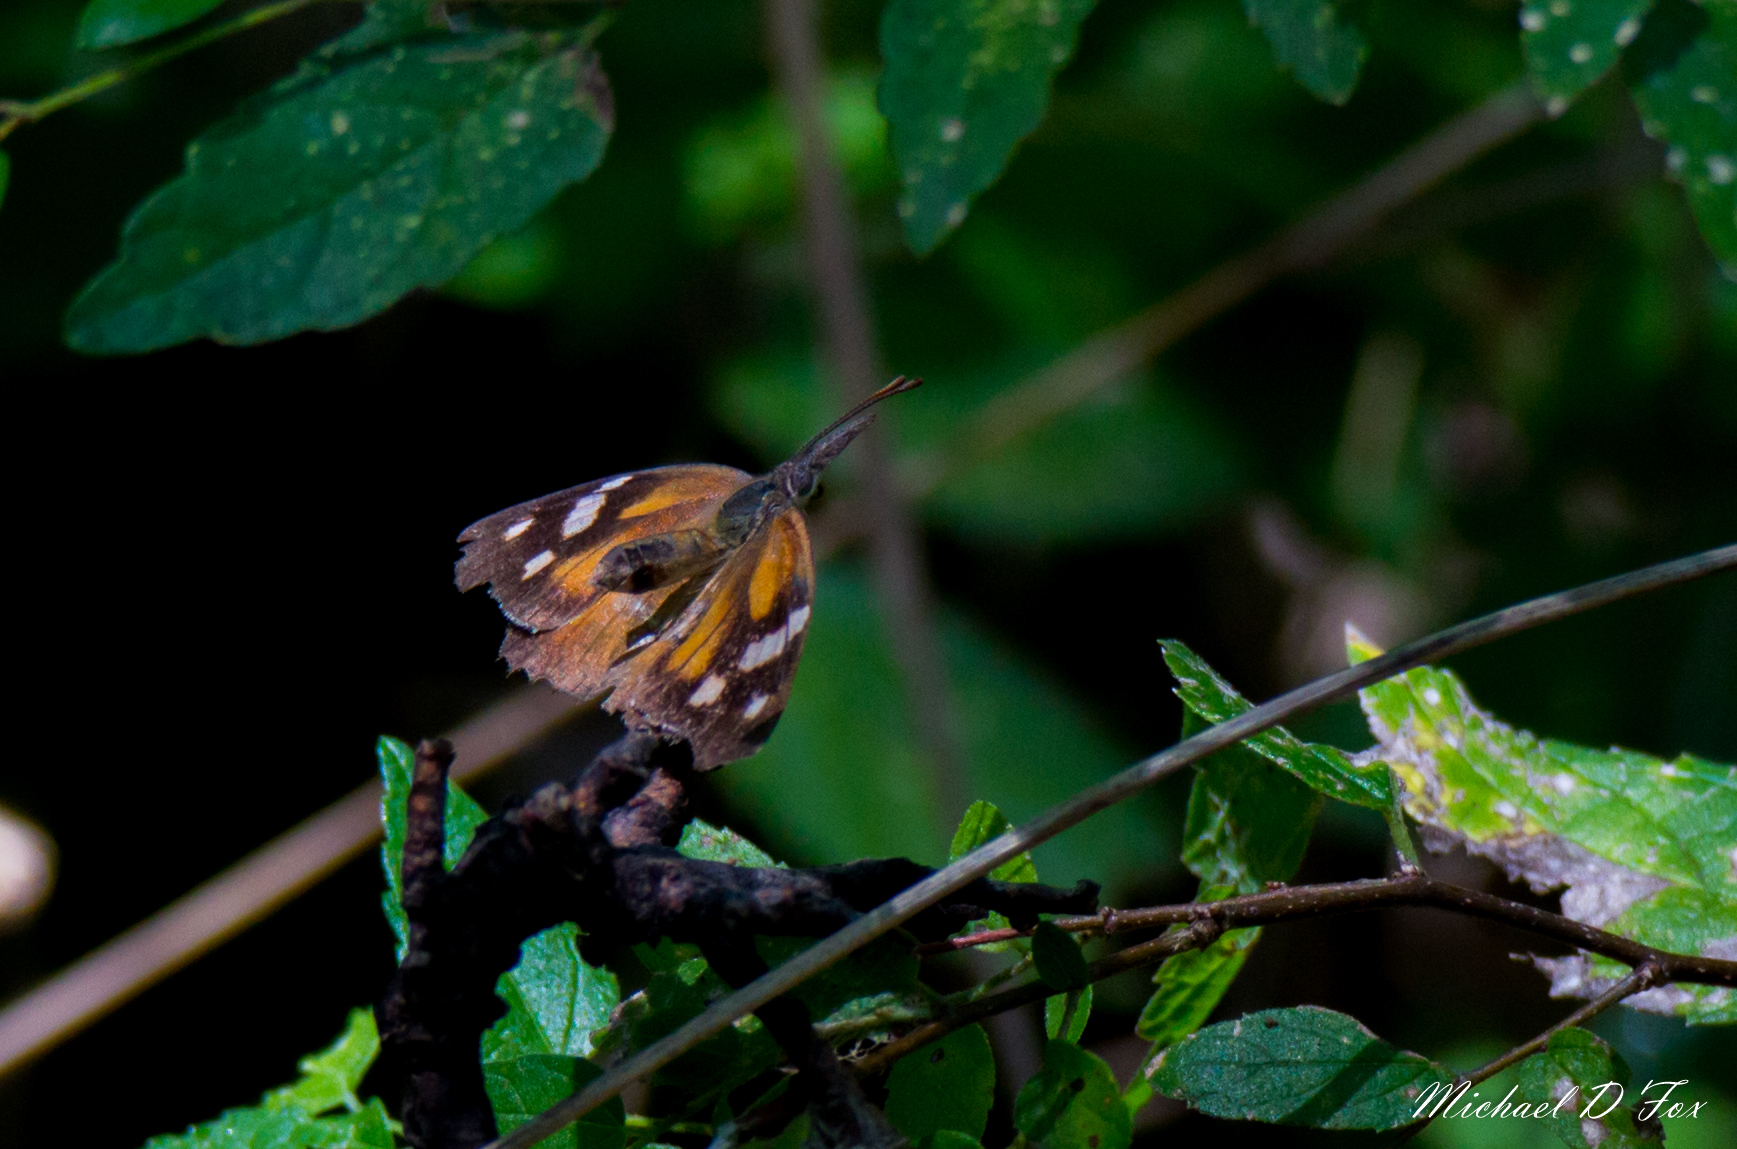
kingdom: Animalia
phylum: Arthropoda
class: Insecta
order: Lepidoptera
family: Nymphalidae
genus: Libytheana
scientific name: Libytheana carinenta
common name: American snout
